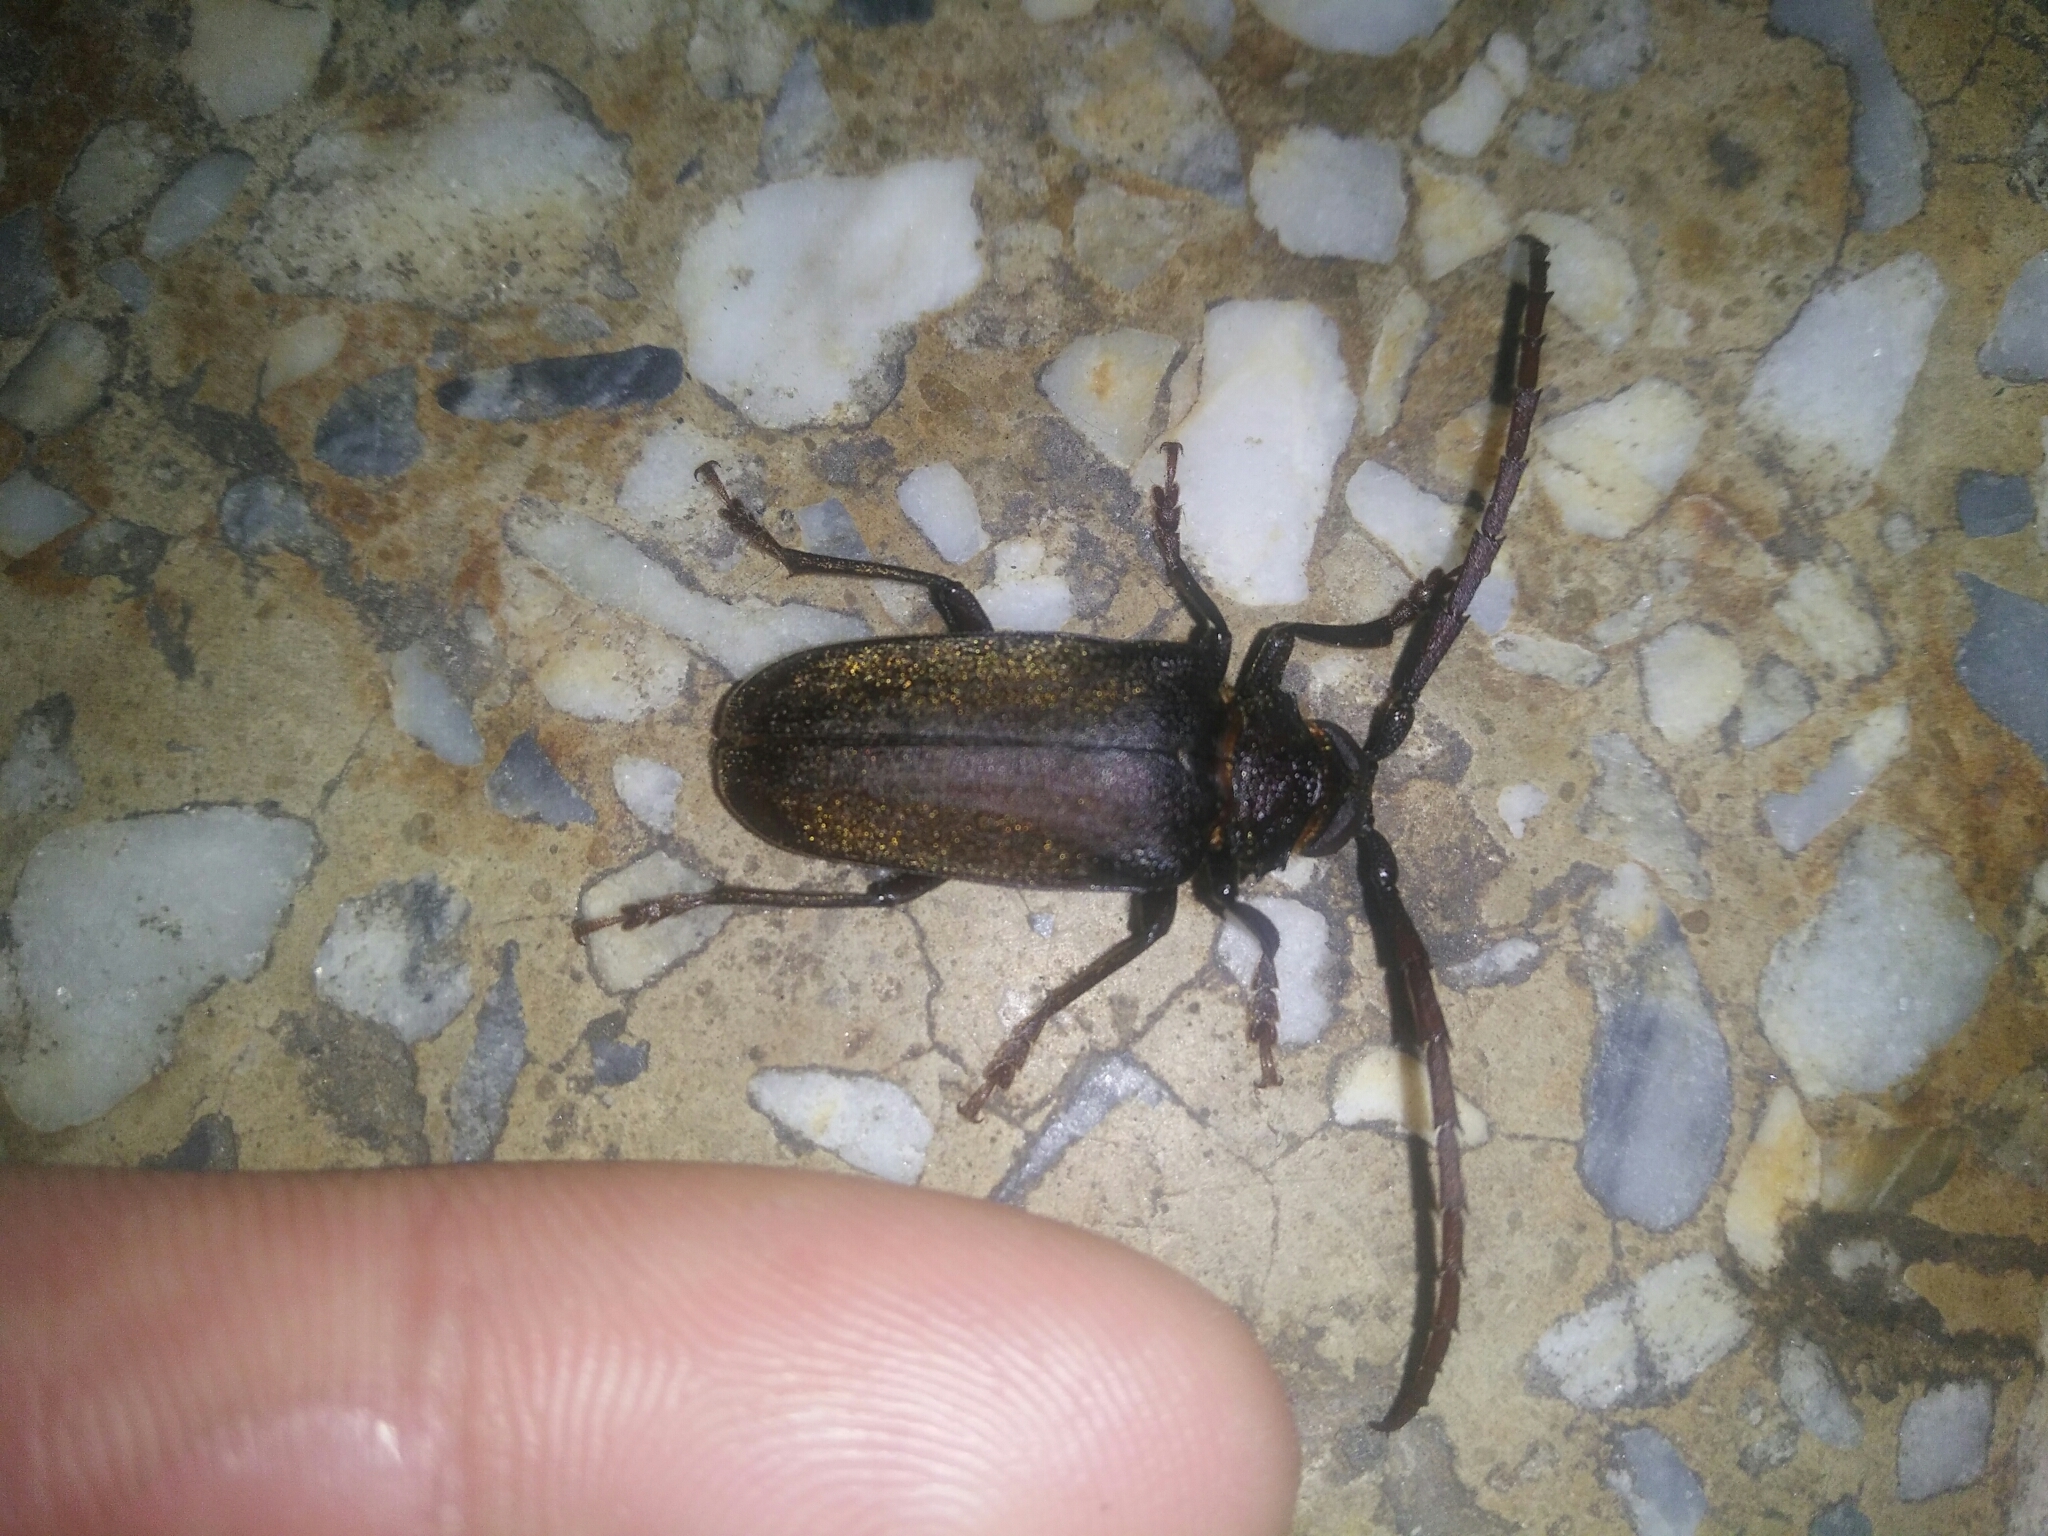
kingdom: Animalia
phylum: Arthropoda
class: Insecta
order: Coleoptera
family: Cerambycidae
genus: Priotyrannus
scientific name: Priotyrannus closteroides
